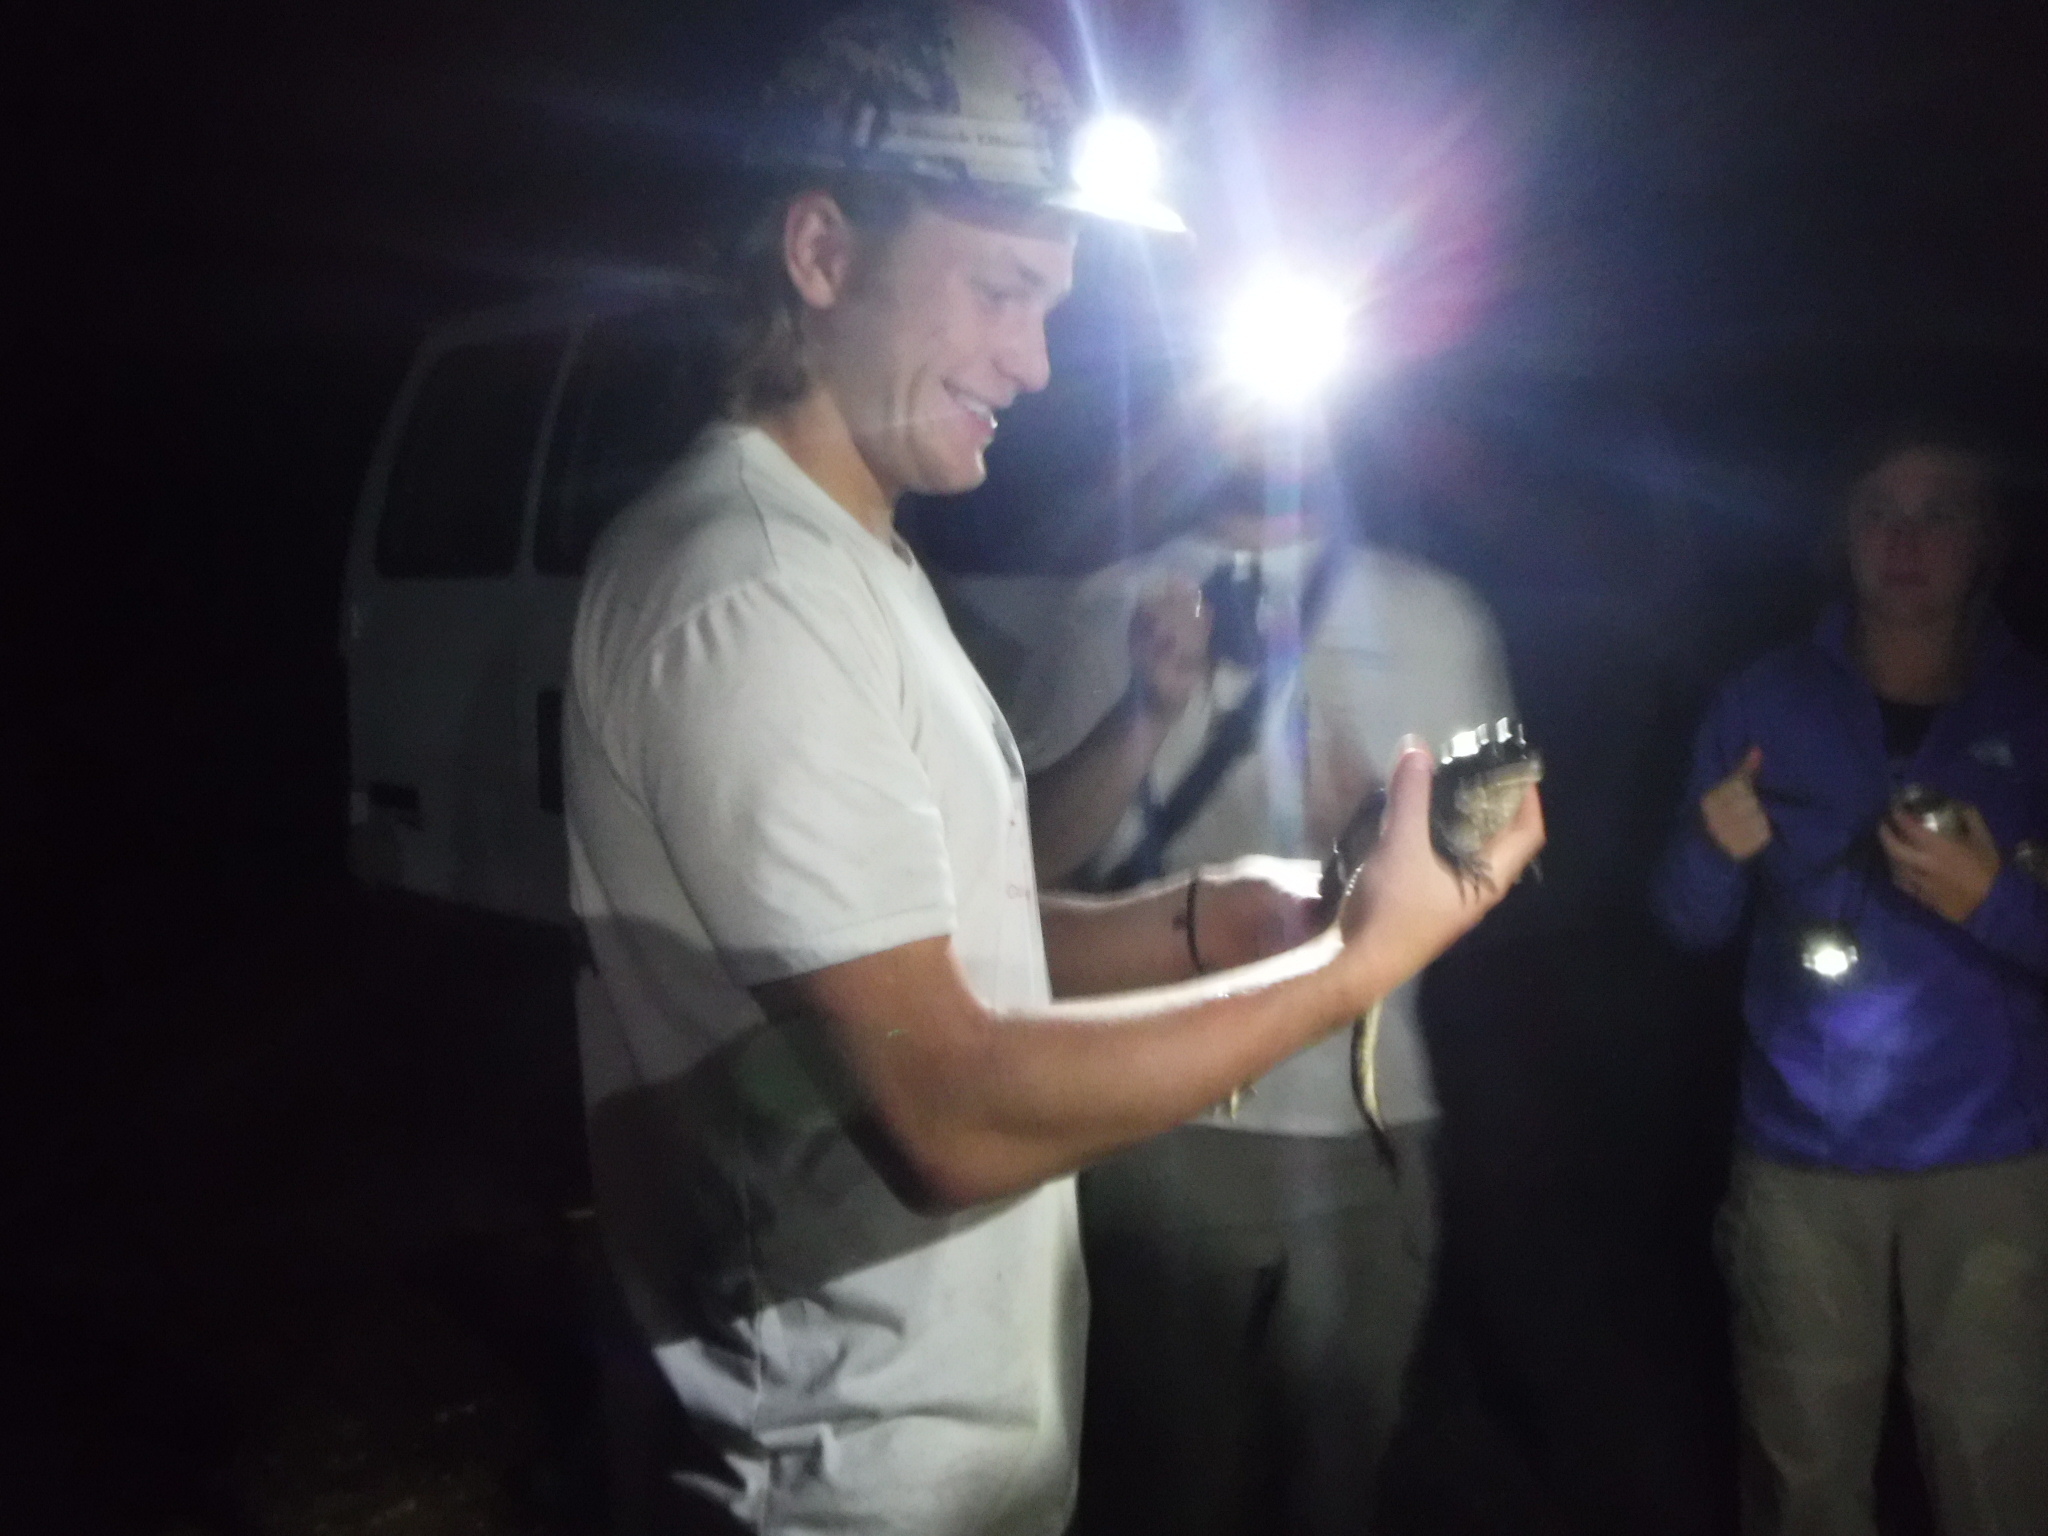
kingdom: Animalia
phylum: Chordata
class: Amphibia
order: Anura
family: Ranidae
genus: Lithobates
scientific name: Lithobates catesbeianus
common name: American bullfrog
